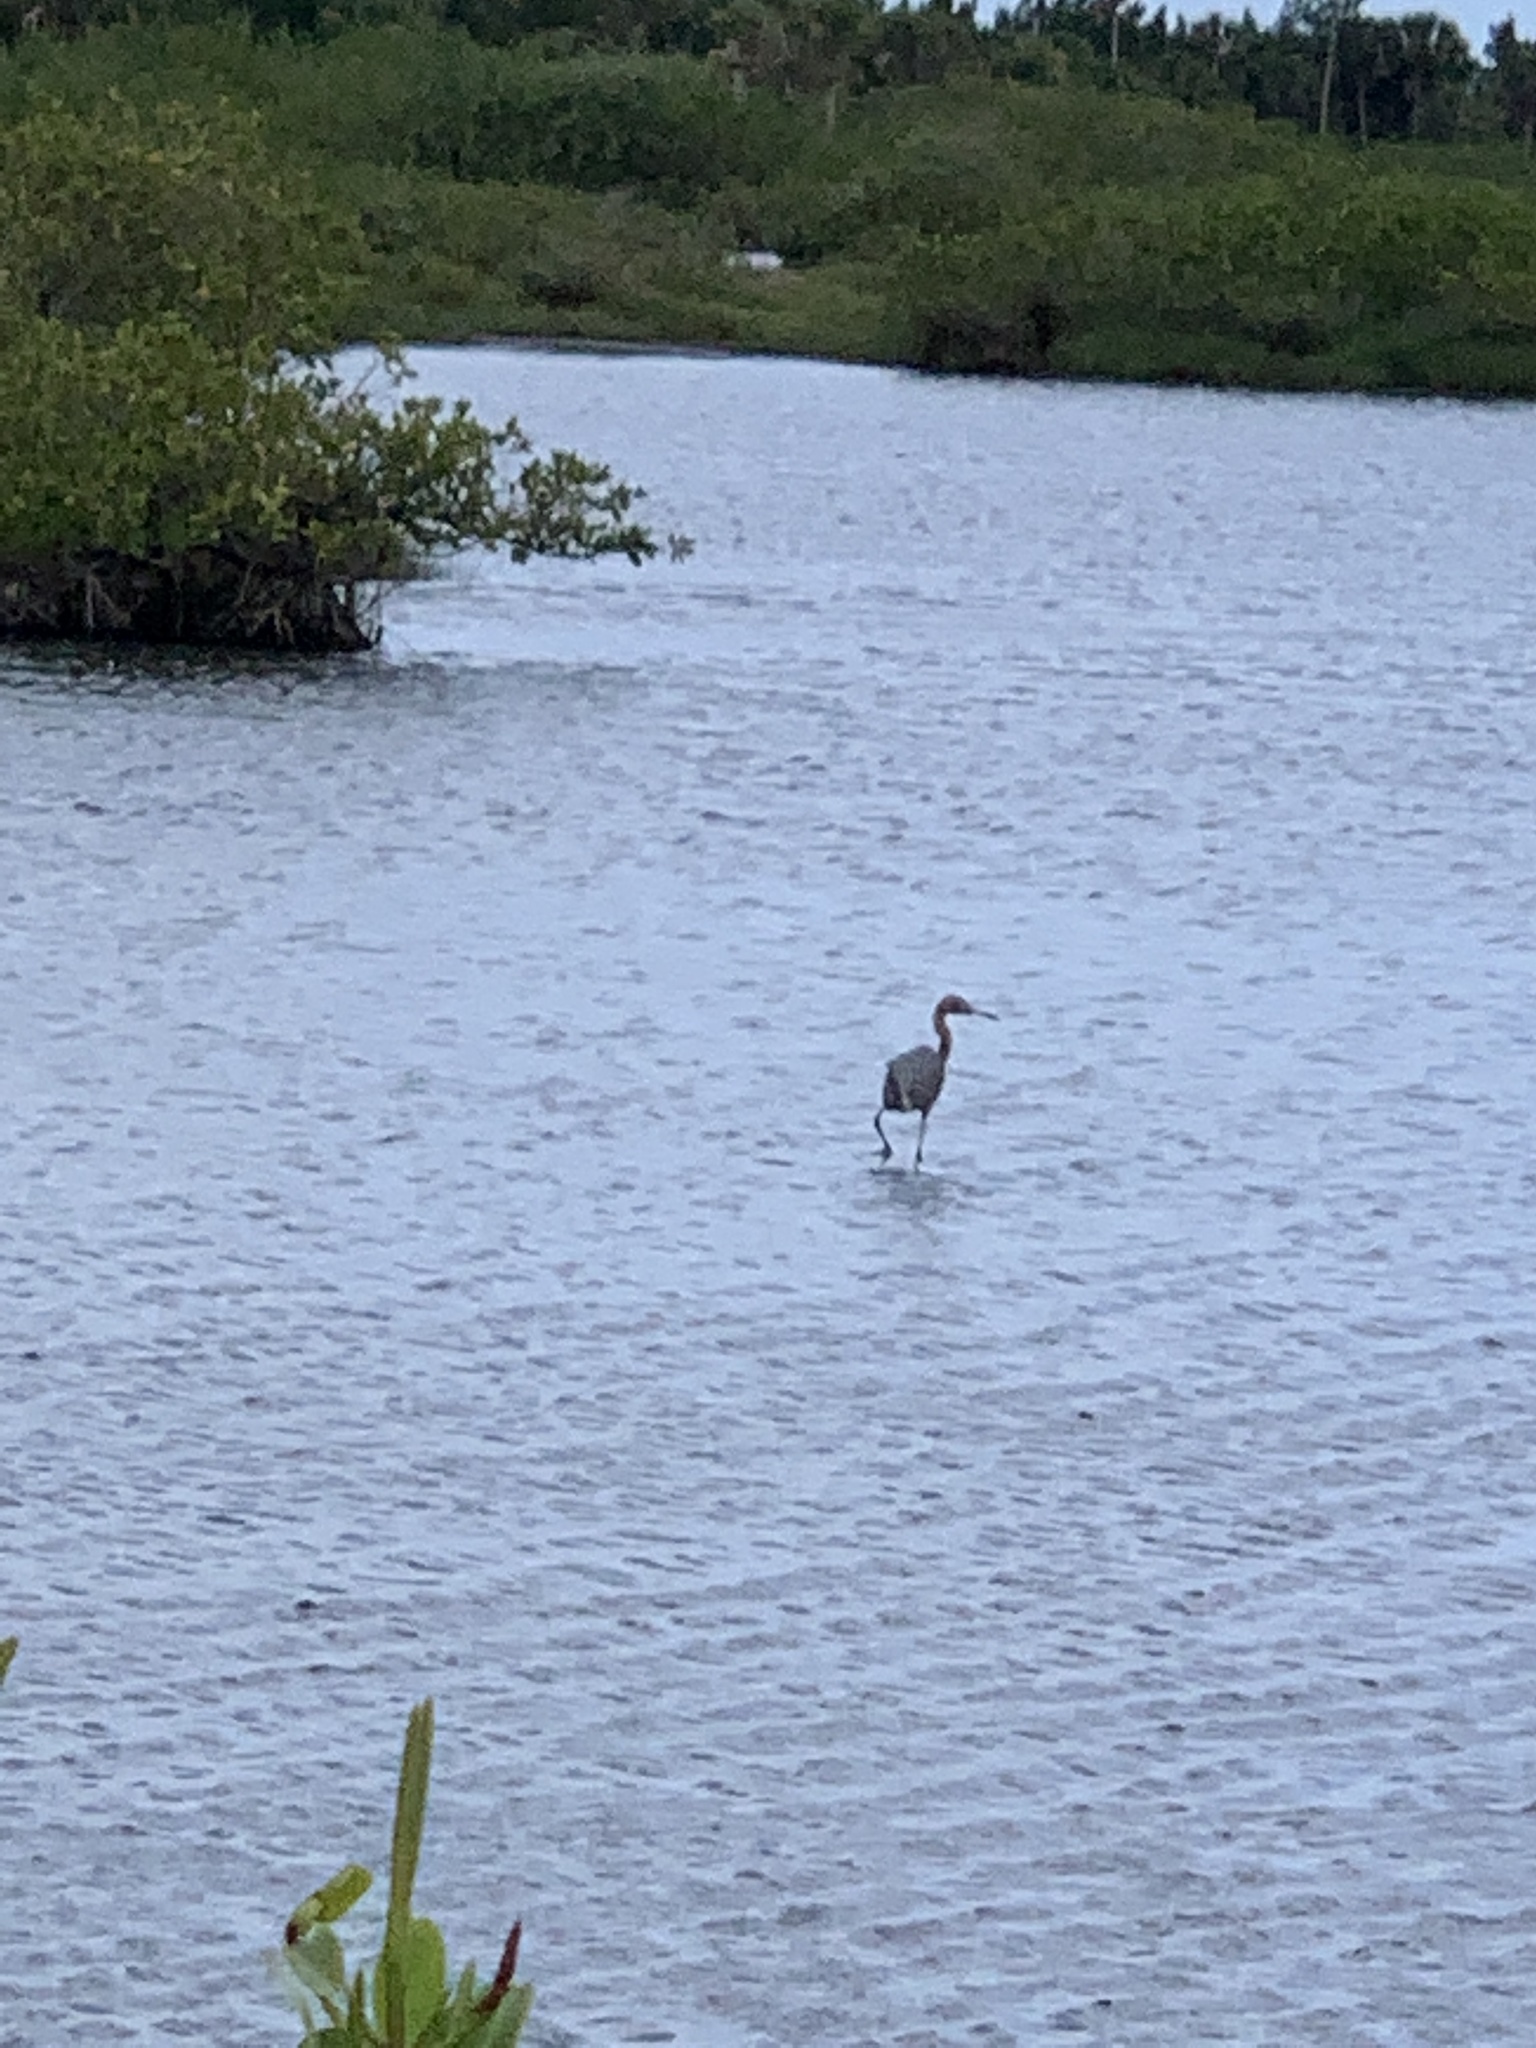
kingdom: Animalia
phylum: Chordata
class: Aves
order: Pelecaniformes
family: Ardeidae
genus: Egretta
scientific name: Egretta caerulea
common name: Little blue heron
